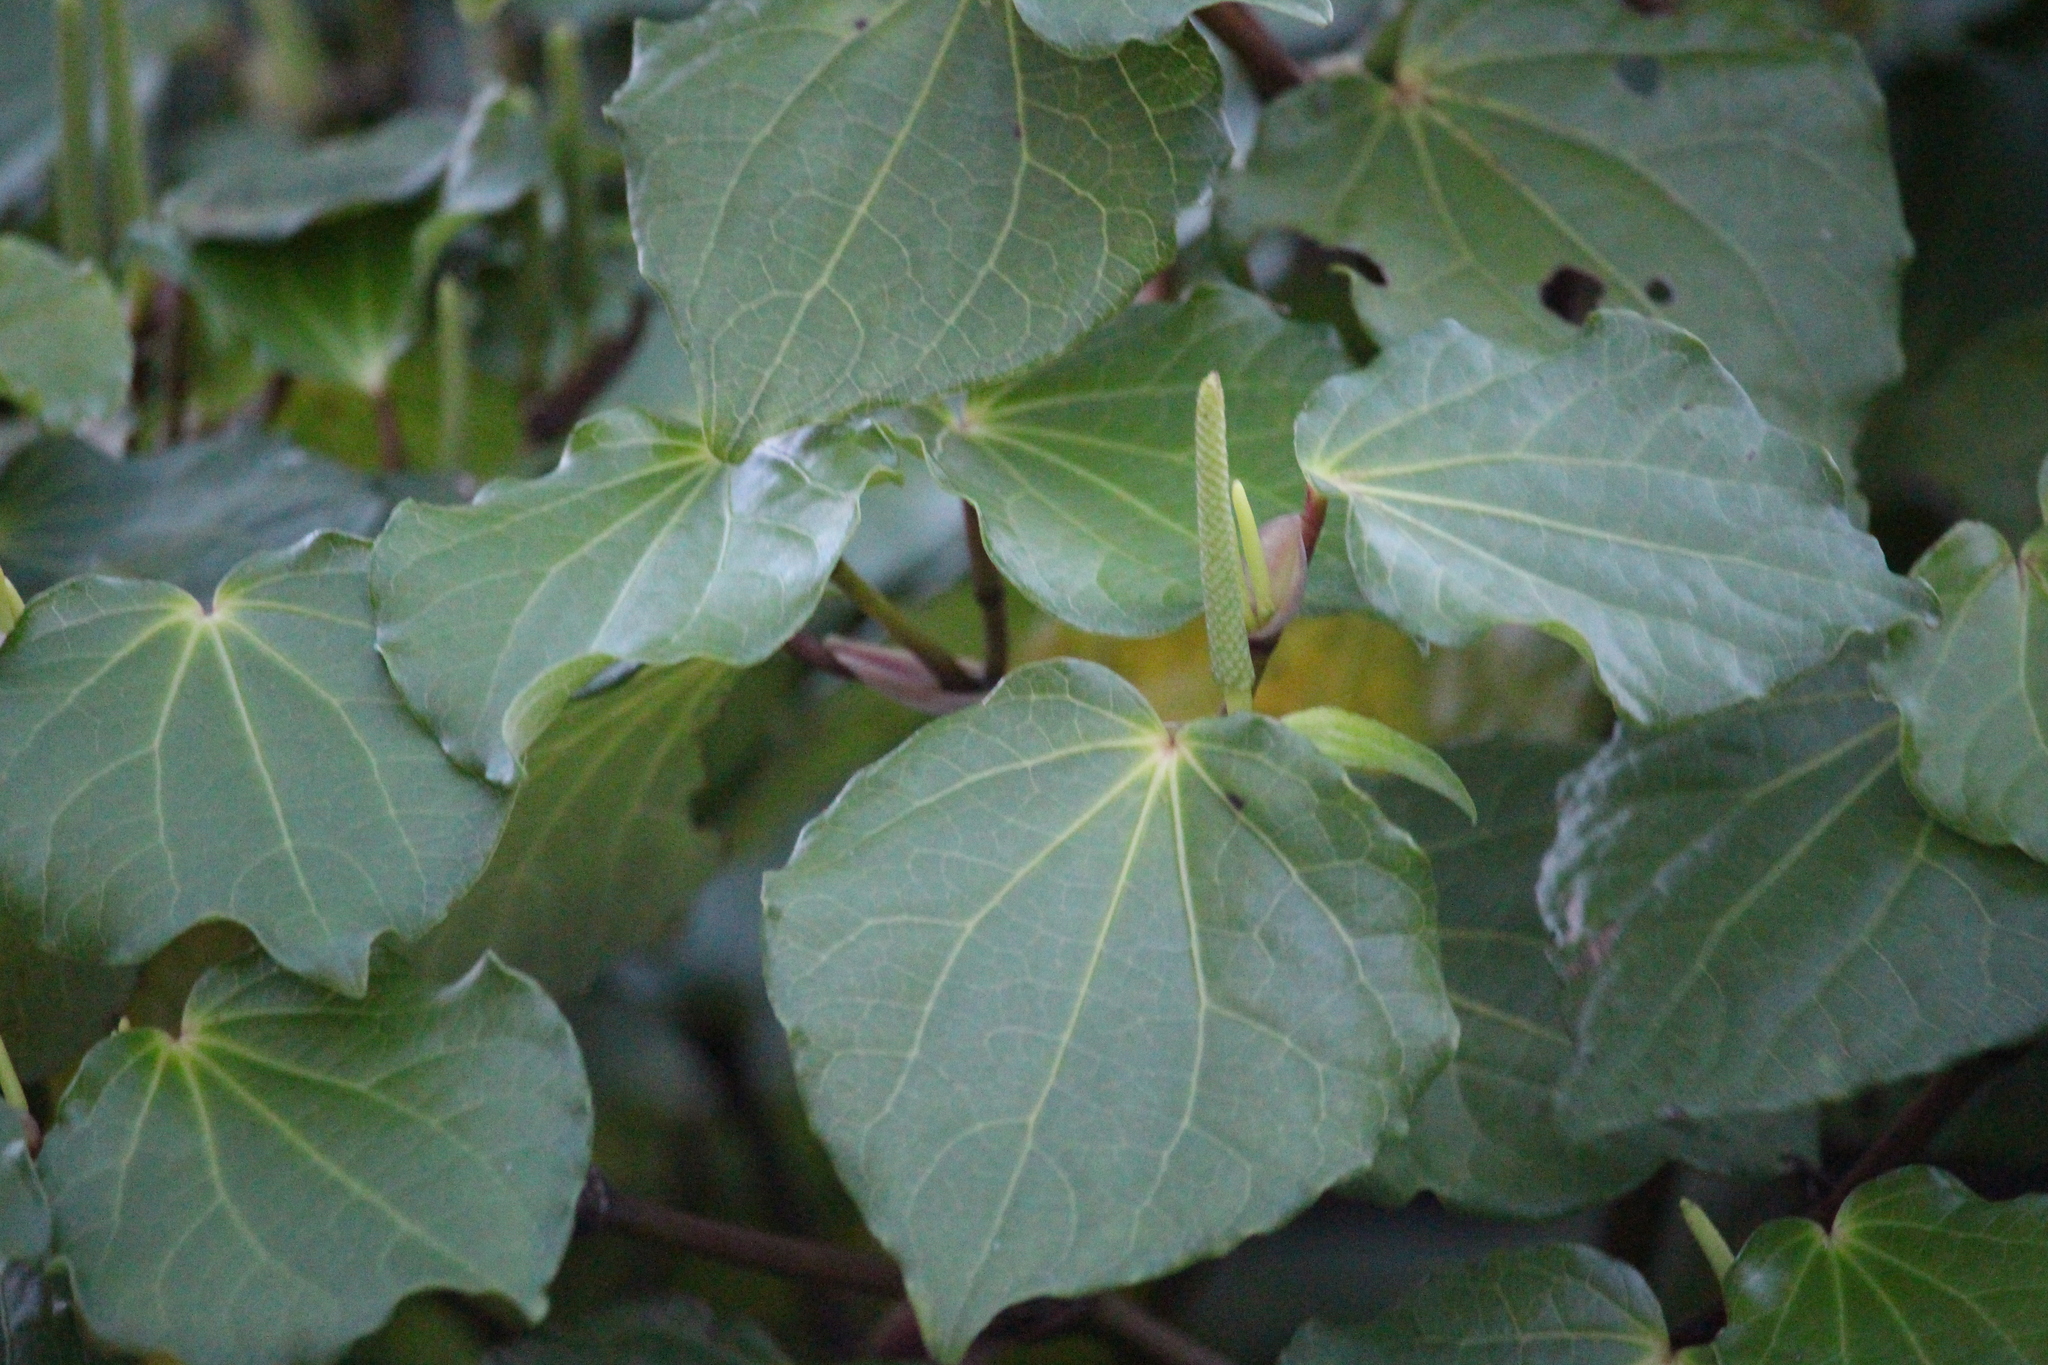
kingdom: Plantae
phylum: Tracheophyta
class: Magnoliopsida
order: Piperales
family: Piperaceae
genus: Macropiper
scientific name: Macropiper excelsum
